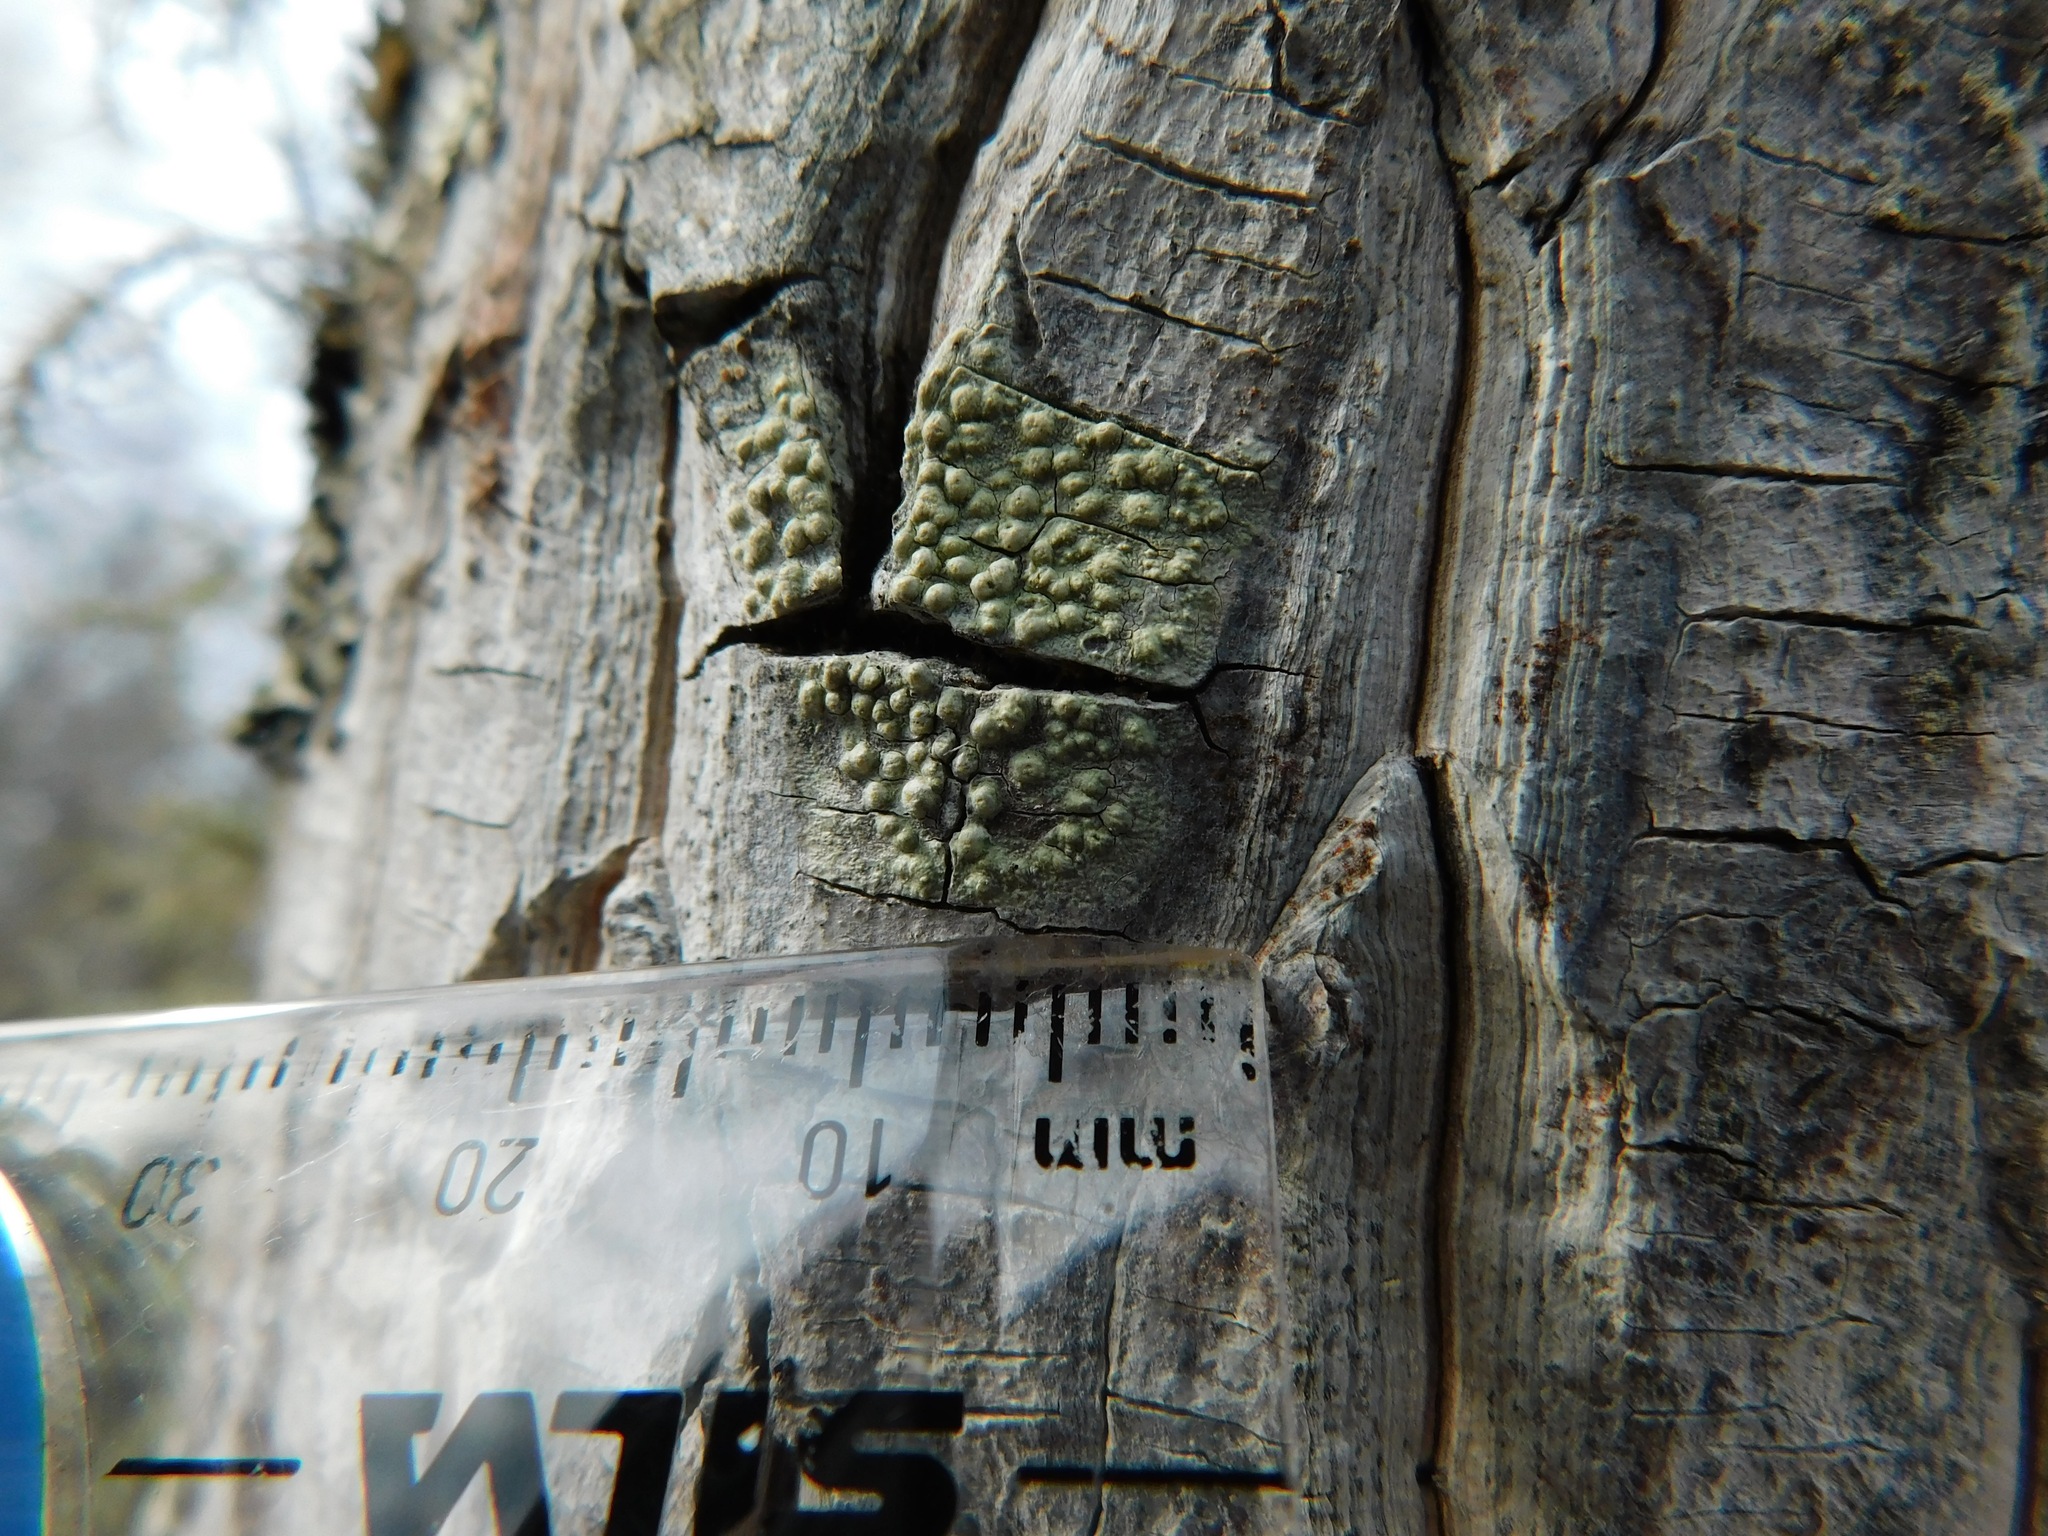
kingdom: Fungi
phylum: Ascomycota
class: Lecanoromycetes
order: Pertusariales
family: Pertusariaceae
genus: Pertusaria
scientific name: Pertusaria
